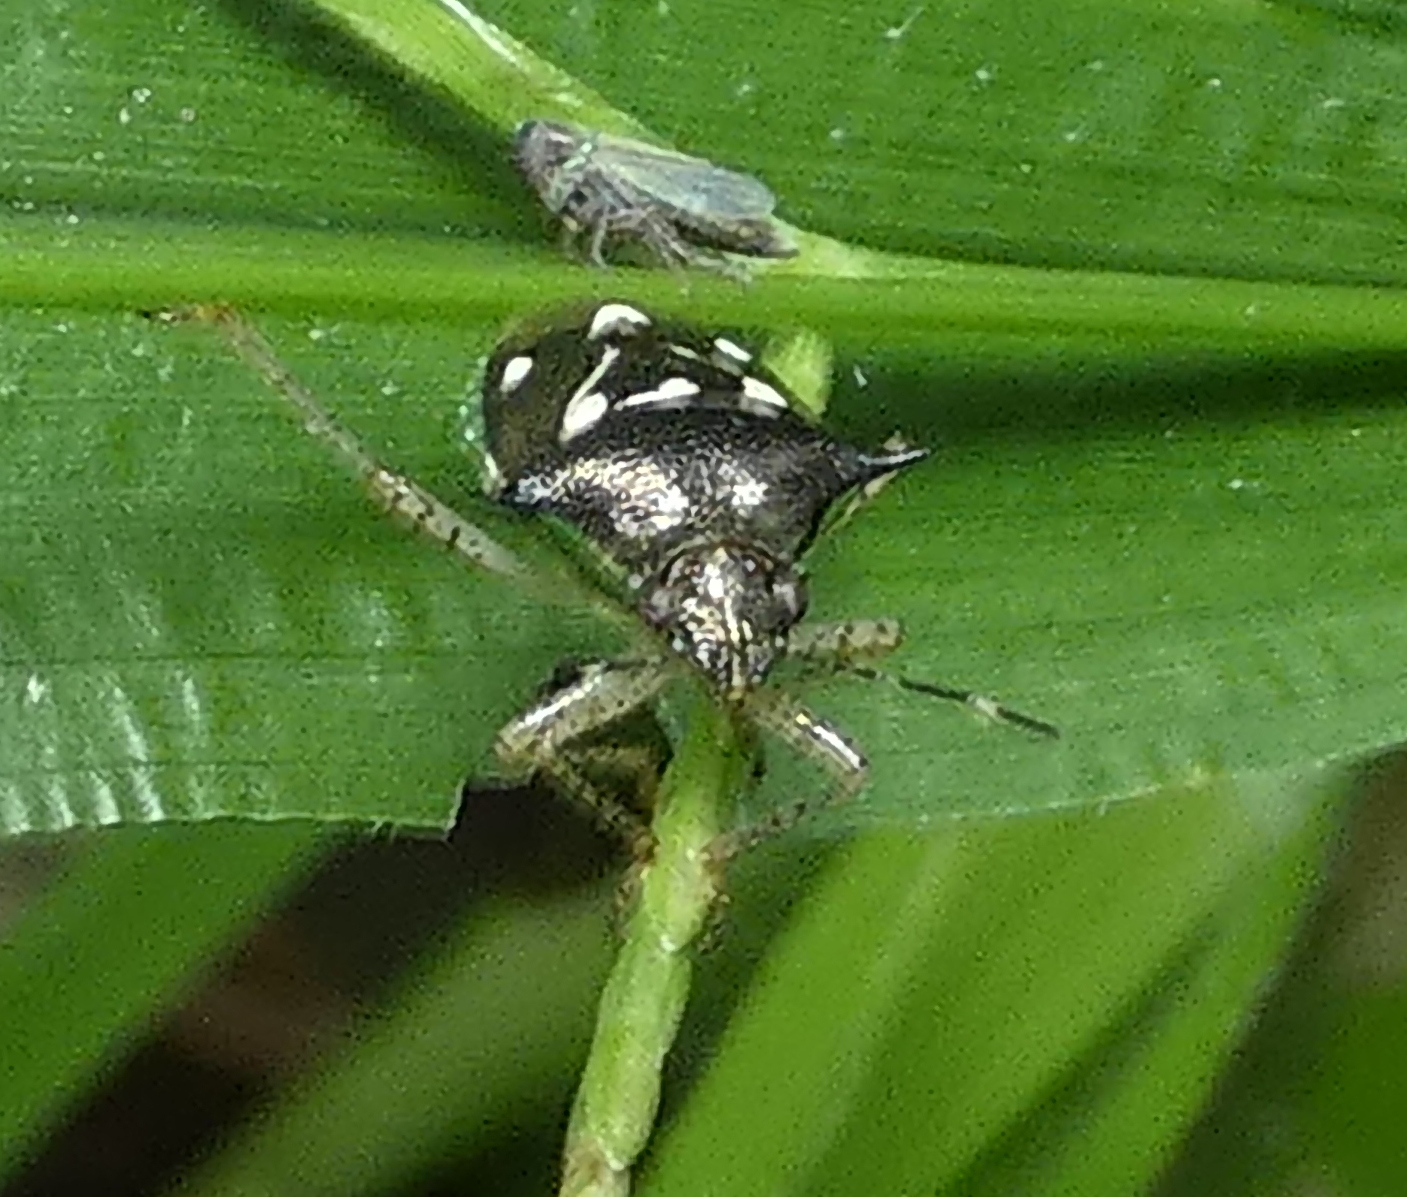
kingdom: Animalia
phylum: Arthropoda
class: Insecta
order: Hemiptera
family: Pentatomidae
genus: Mormidea
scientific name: Mormidea v-luteum
